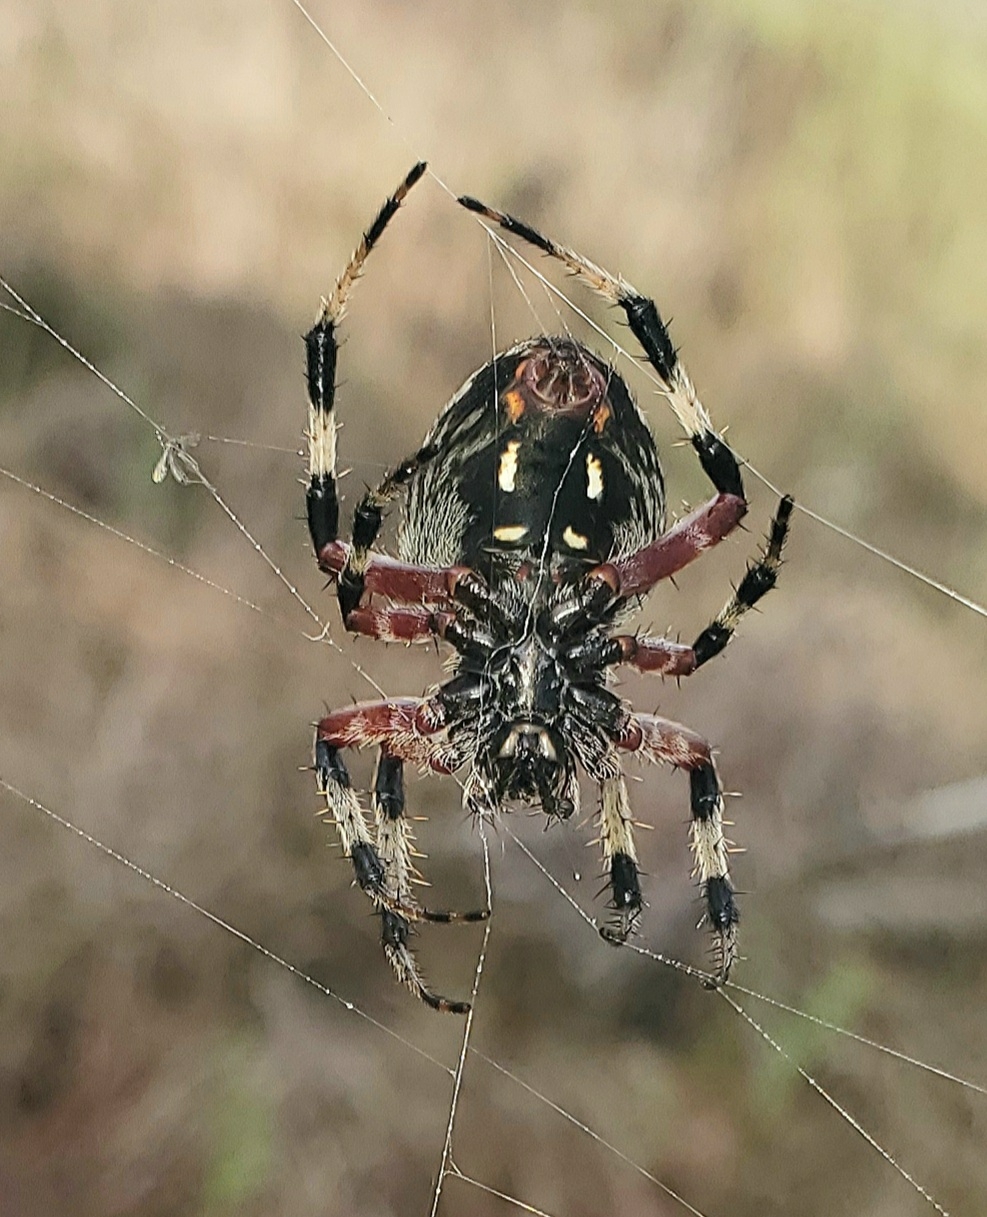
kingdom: Animalia
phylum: Arthropoda
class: Arachnida
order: Araneae
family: Araneidae
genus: Neoscona
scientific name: Neoscona domiciliorum
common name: Red-femured spotted orbweaver
